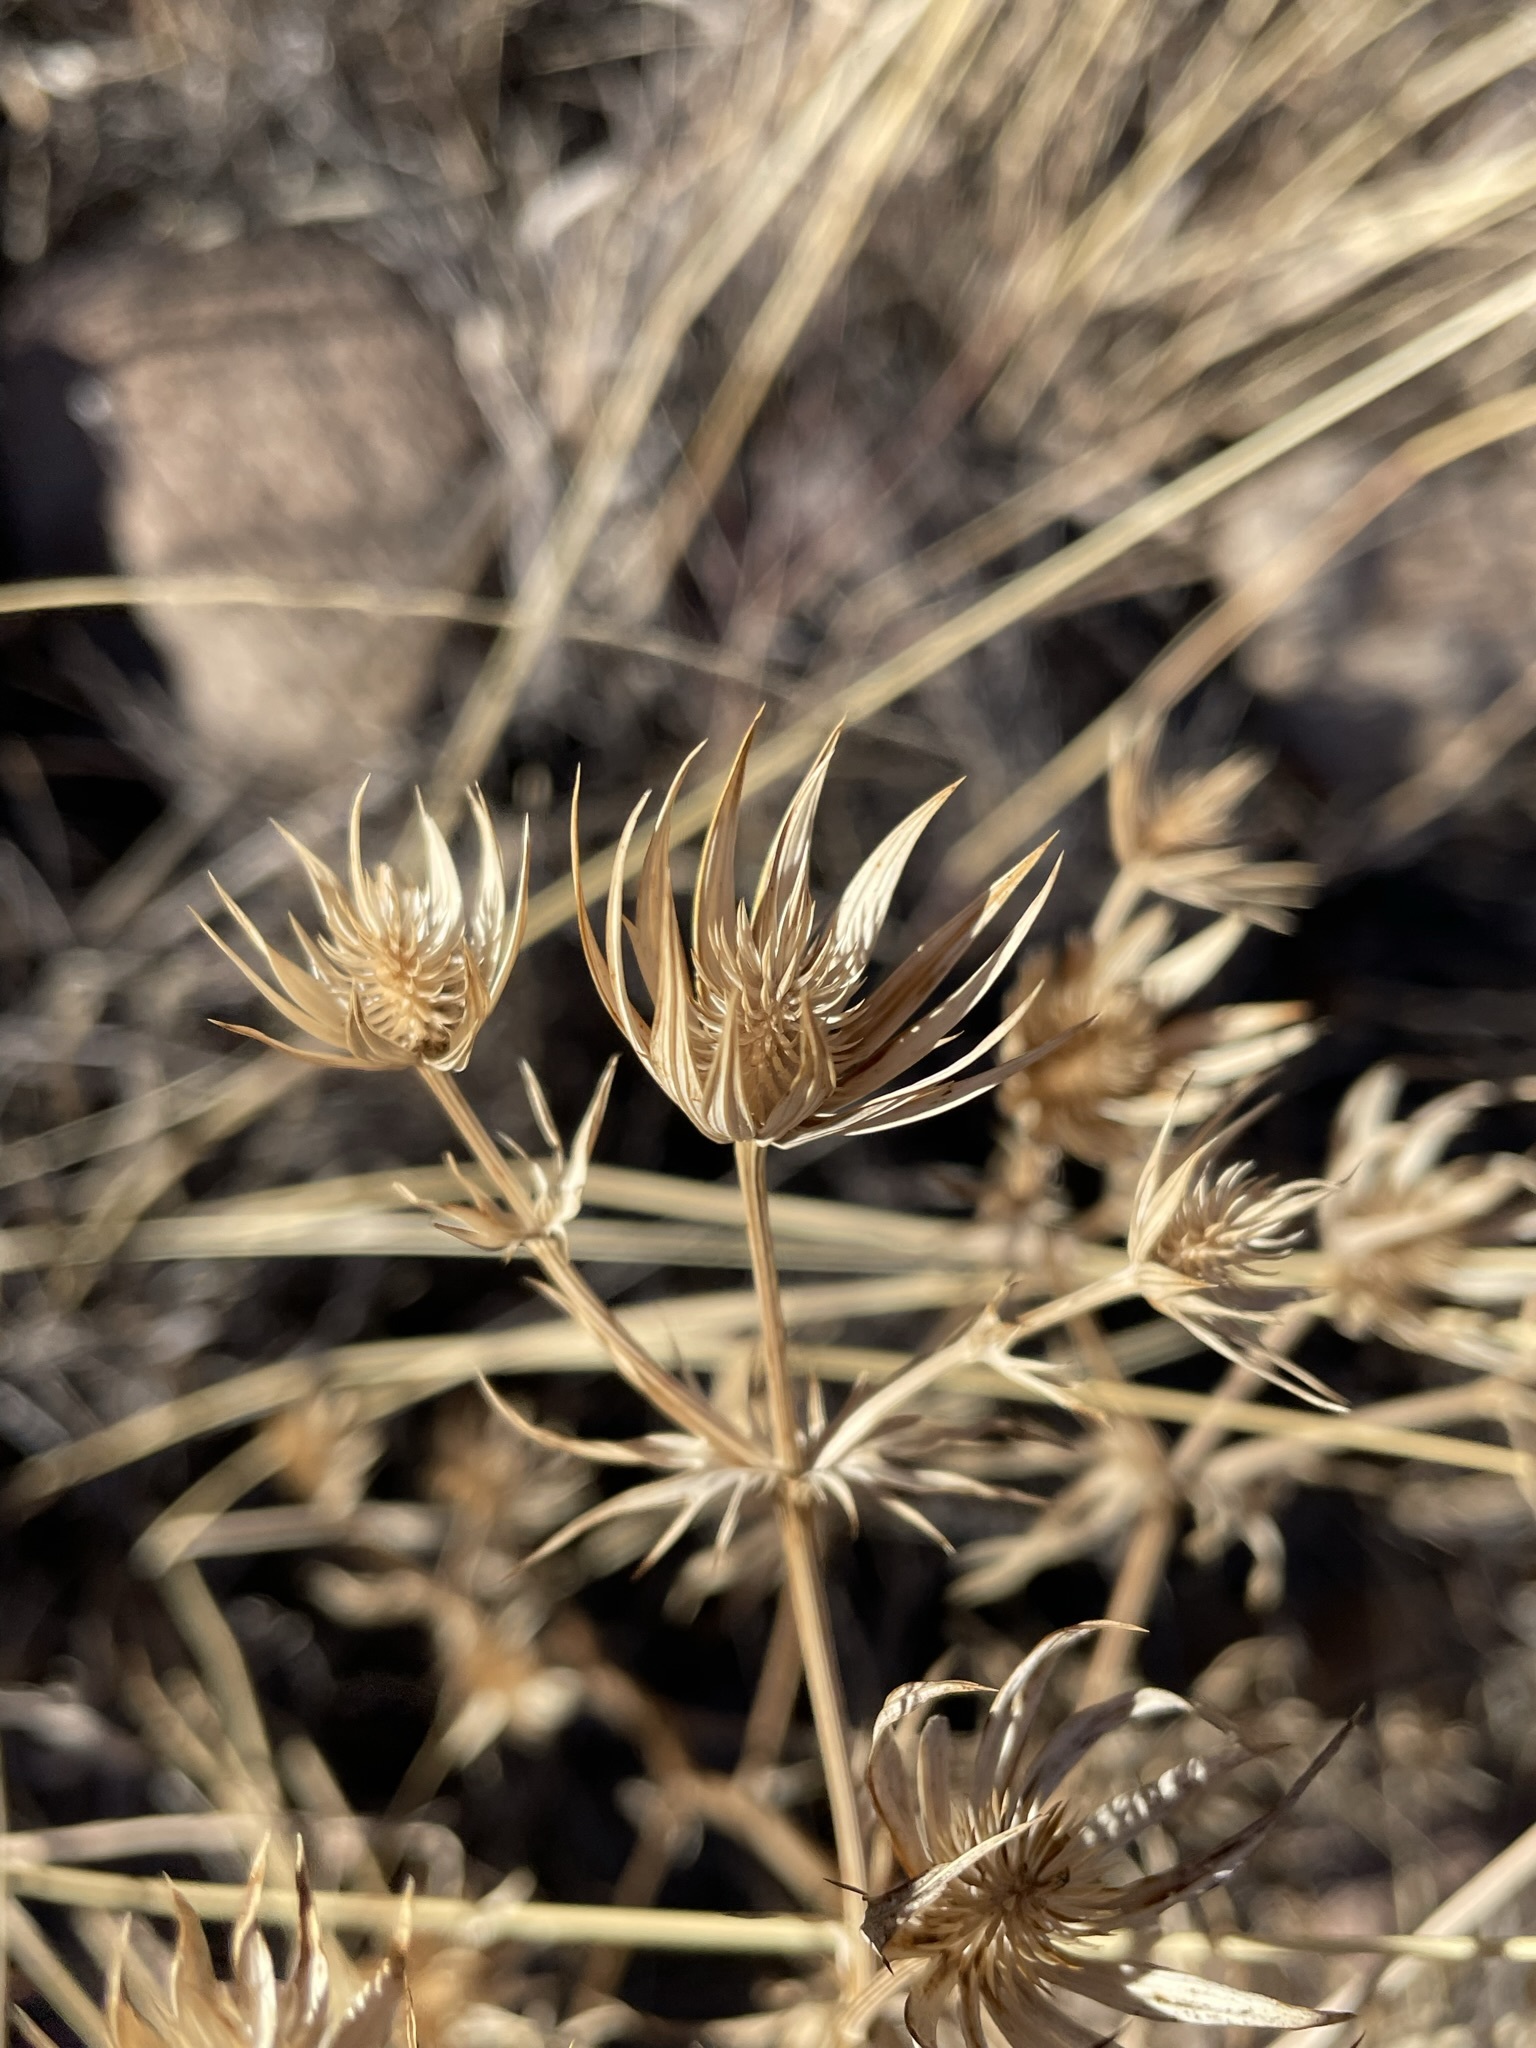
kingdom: Plantae
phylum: Tracheophyta
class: Magnoliopsida
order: Apiales
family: Apiaceae
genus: Eryngium
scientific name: Eryngium heterophyllum
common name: Mexican thistle
